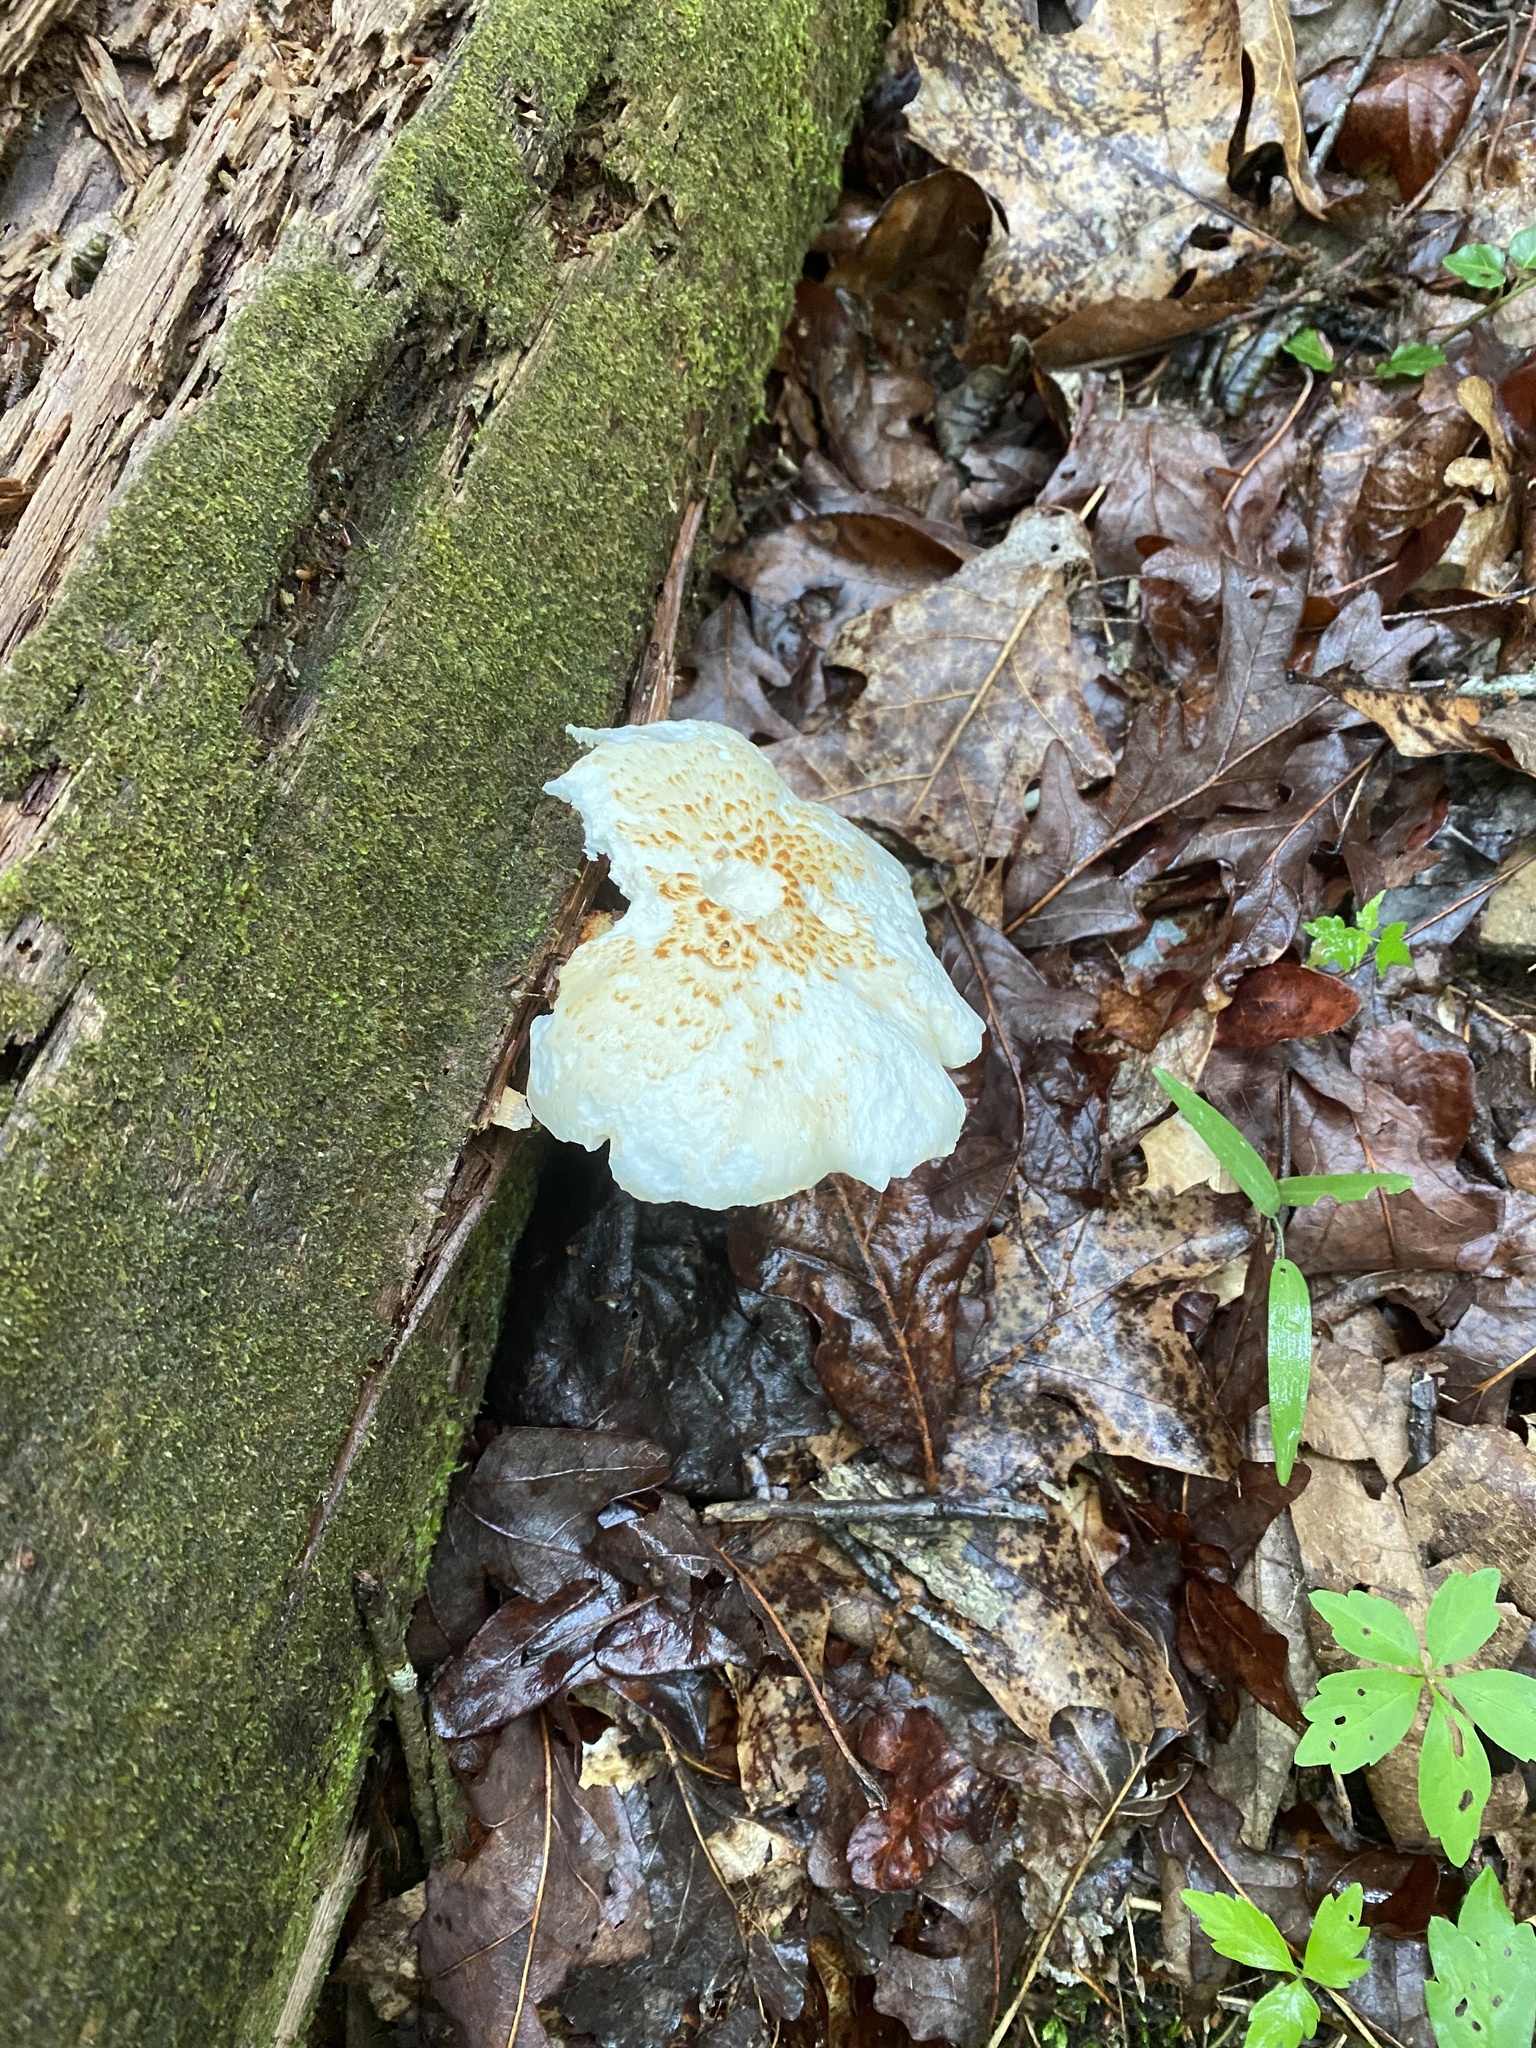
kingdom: Fungi
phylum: Basidiomycota
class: Agaricomycetes
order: Gloeophyllales
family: Gloeophyllaceae
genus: Neolentinus
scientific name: Neolentinus lepideus
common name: Scaly sawgill
